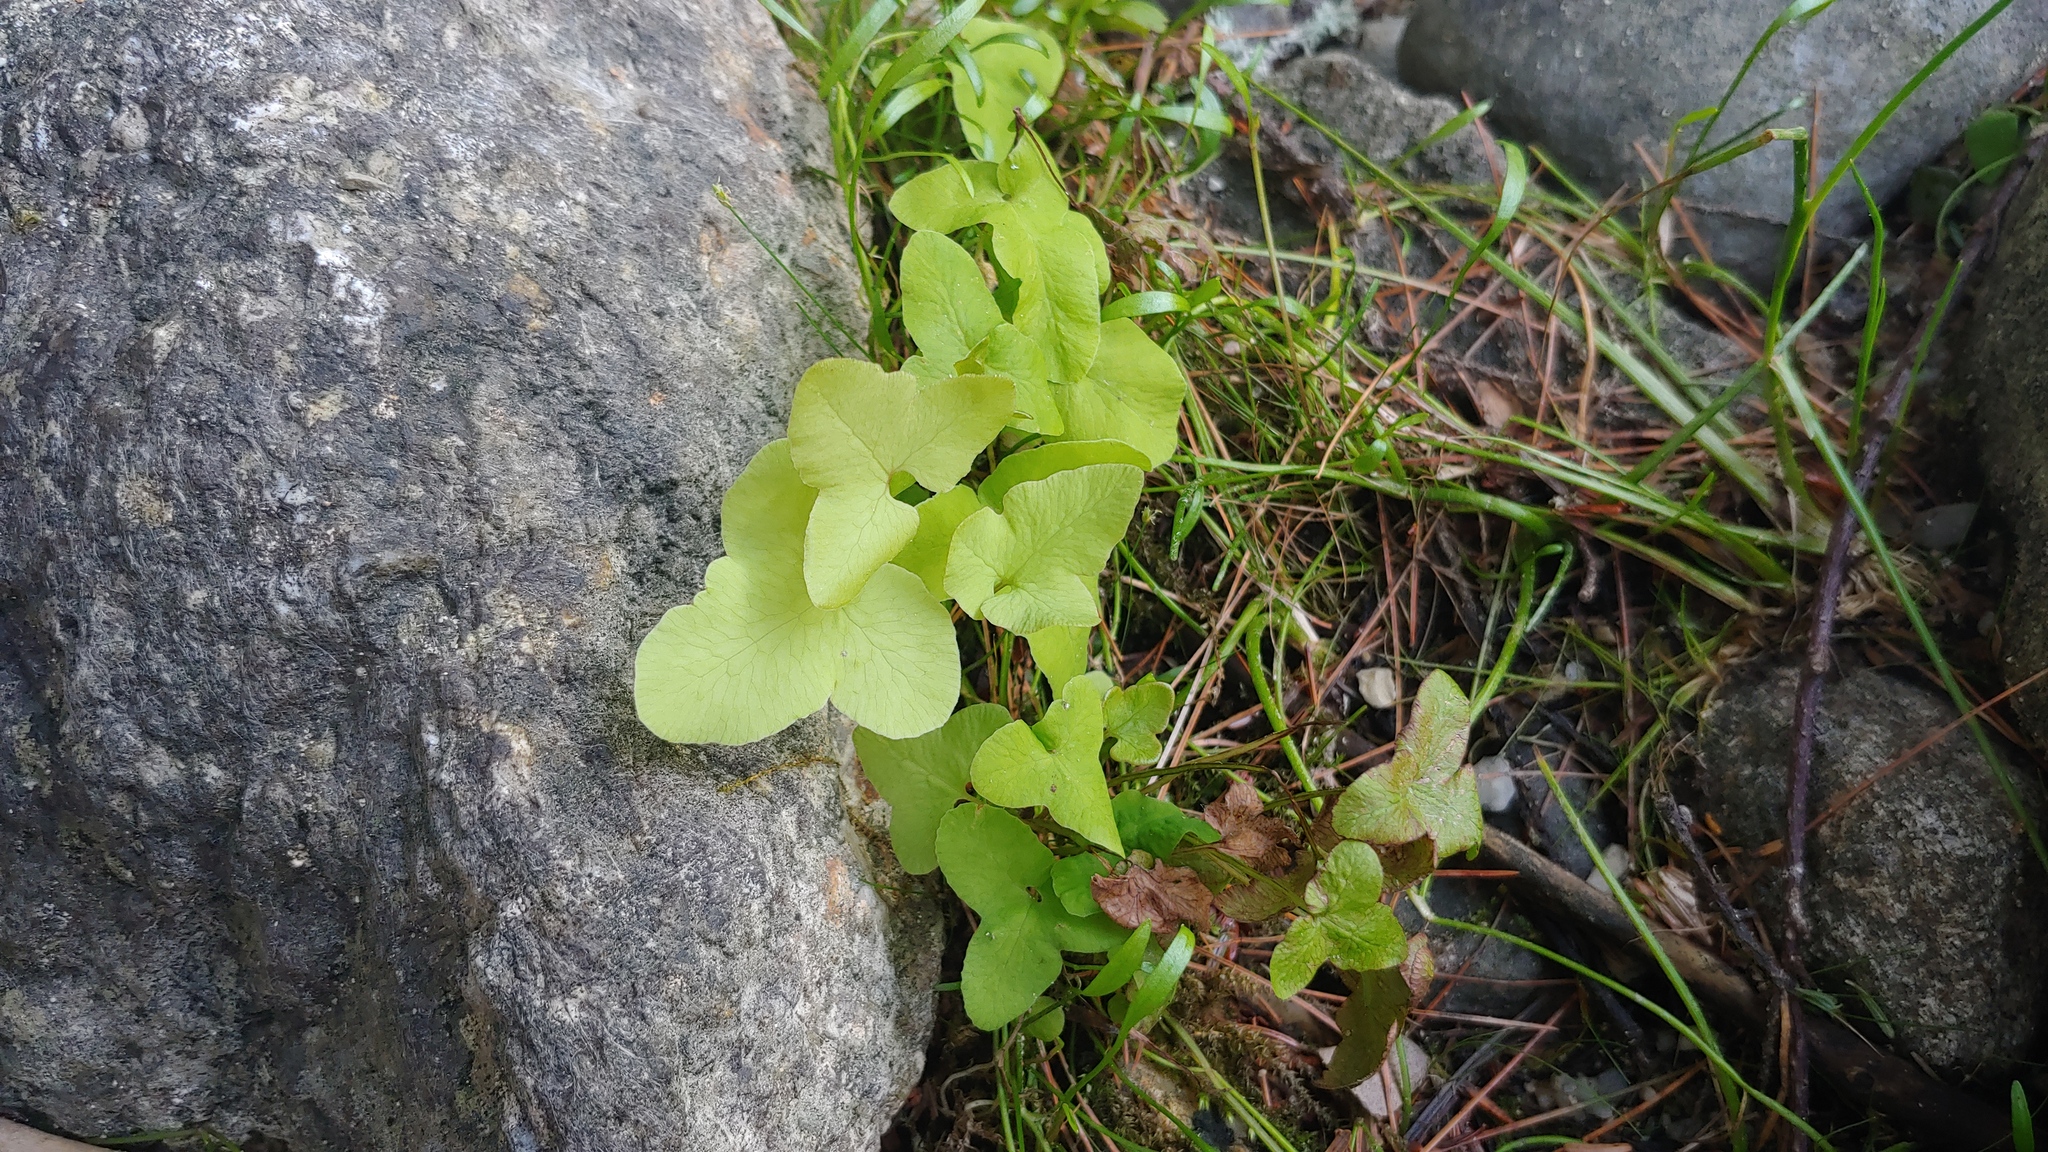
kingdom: Plantae
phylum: Tracheophyta
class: Polypodiopsida
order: Polypodiales
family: Onocleaceae
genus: Onoclea
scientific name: Onoclea sensibilis
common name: Sensitive fern
